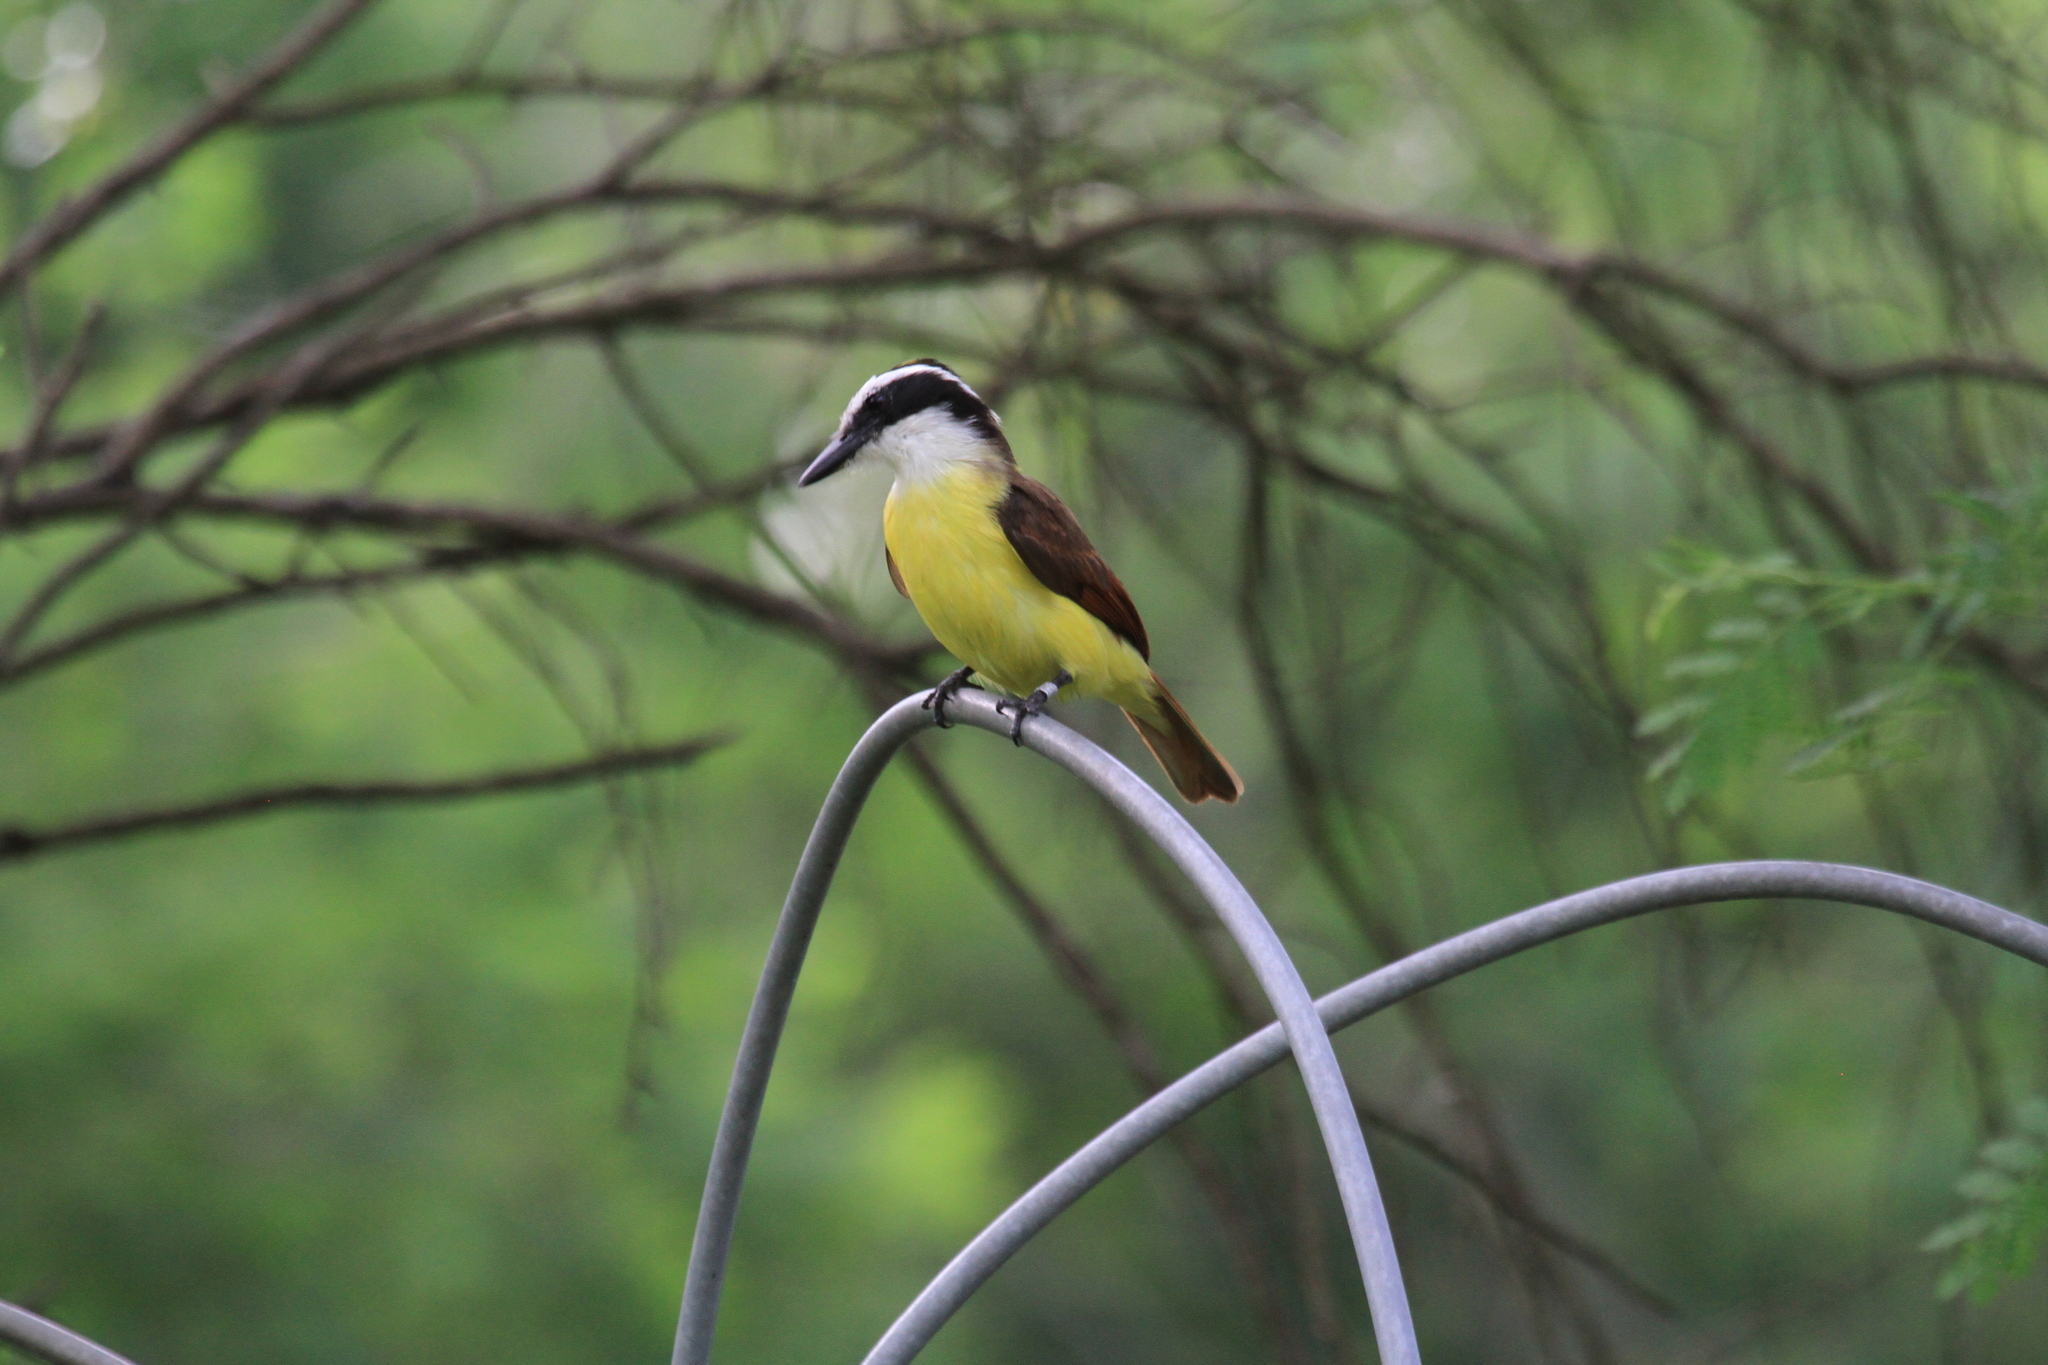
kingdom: Animalia
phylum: Chordata
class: Aves
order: Passeriformes
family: Tyrannidae
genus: Pitangus
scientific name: Pitangus sulphuratus
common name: Great kiskadee
